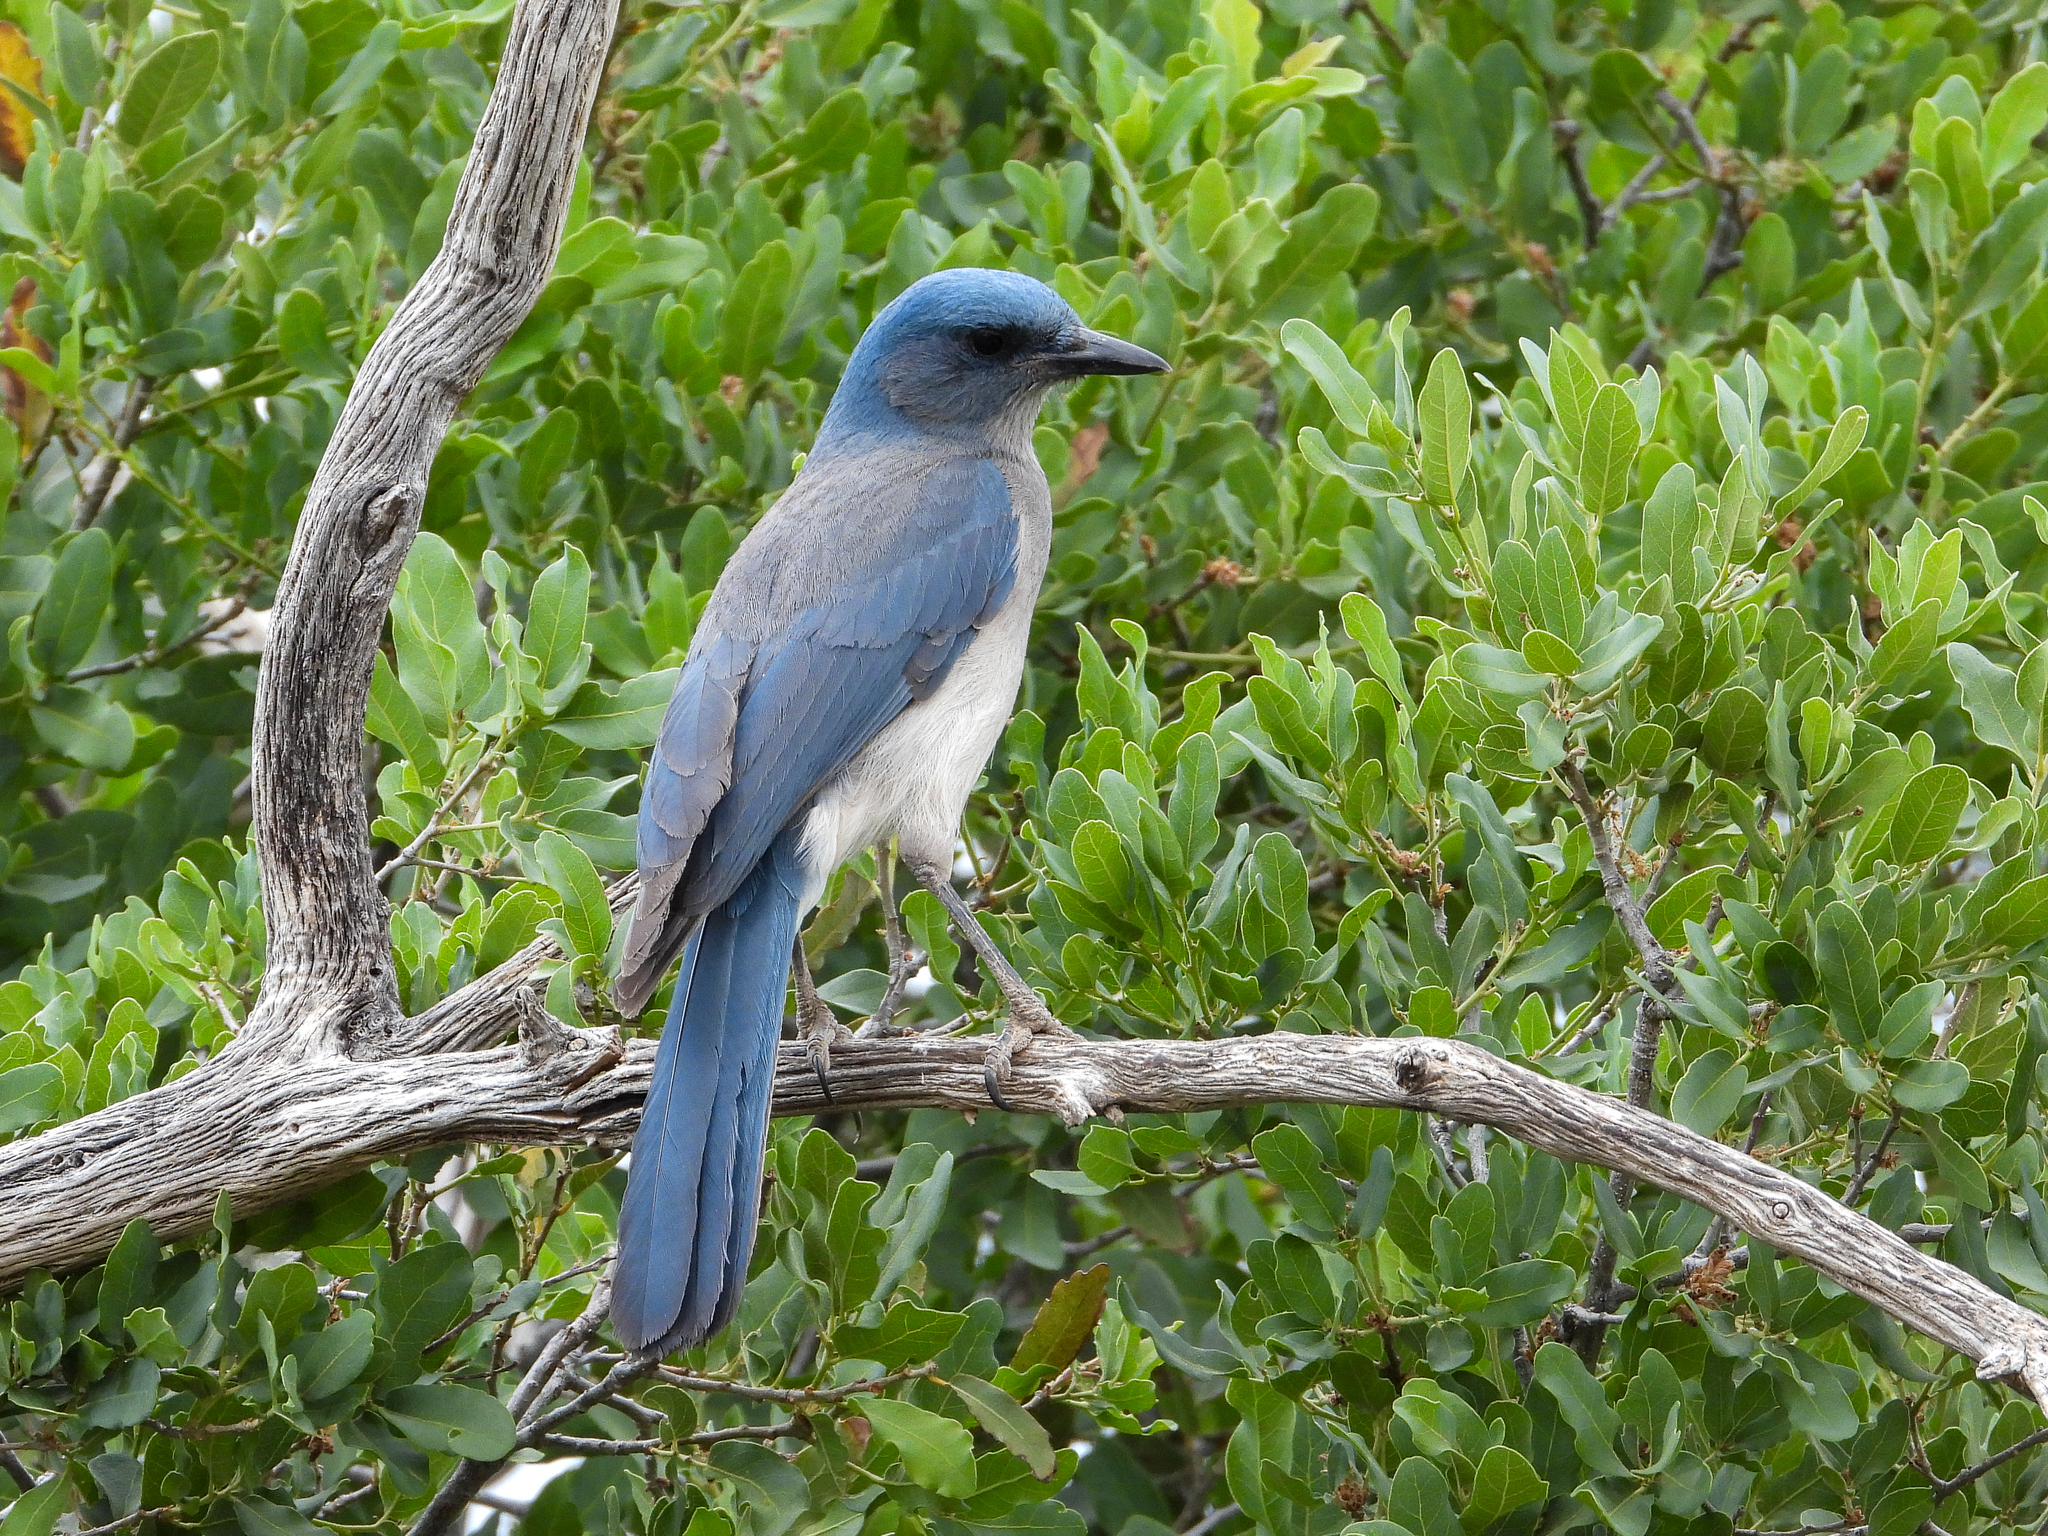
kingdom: Animalia
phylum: Chordata
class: Aves
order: Passeriformes
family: Corvidae
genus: Aphelocoma
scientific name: Aphelocoma wollweberi
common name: Mexican jay
